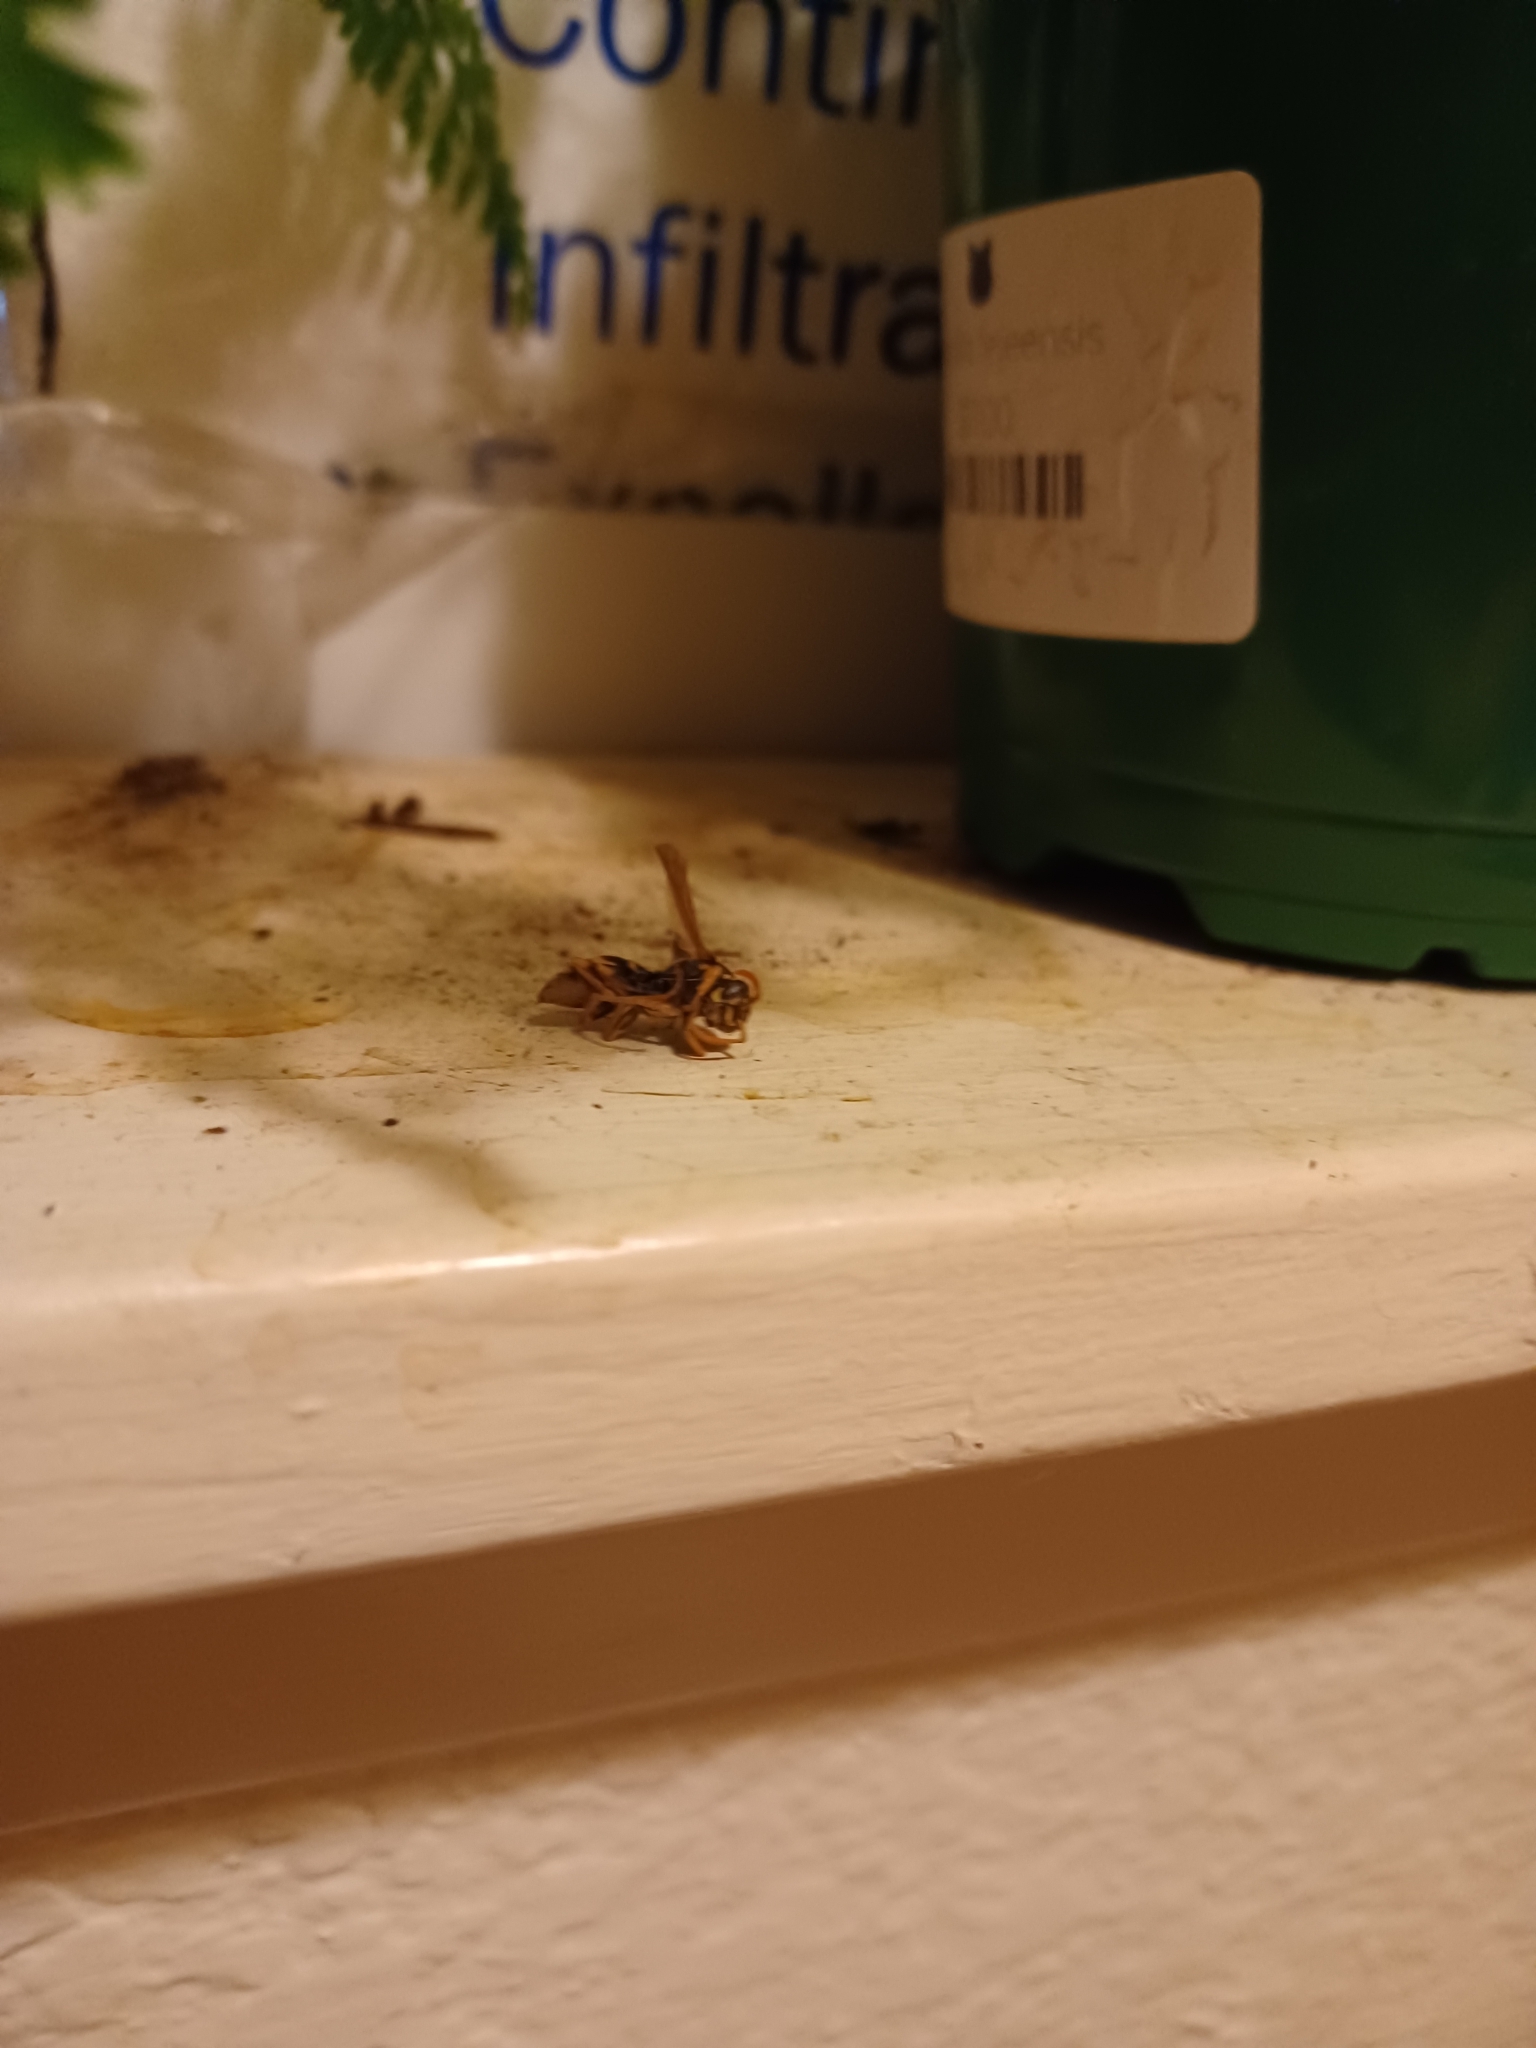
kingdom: Animalia
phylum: Arthropoda
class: Insecta
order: Hymenoptera
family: Eumenidae
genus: Polistes
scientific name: Polistes dominula
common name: Paper wasp
